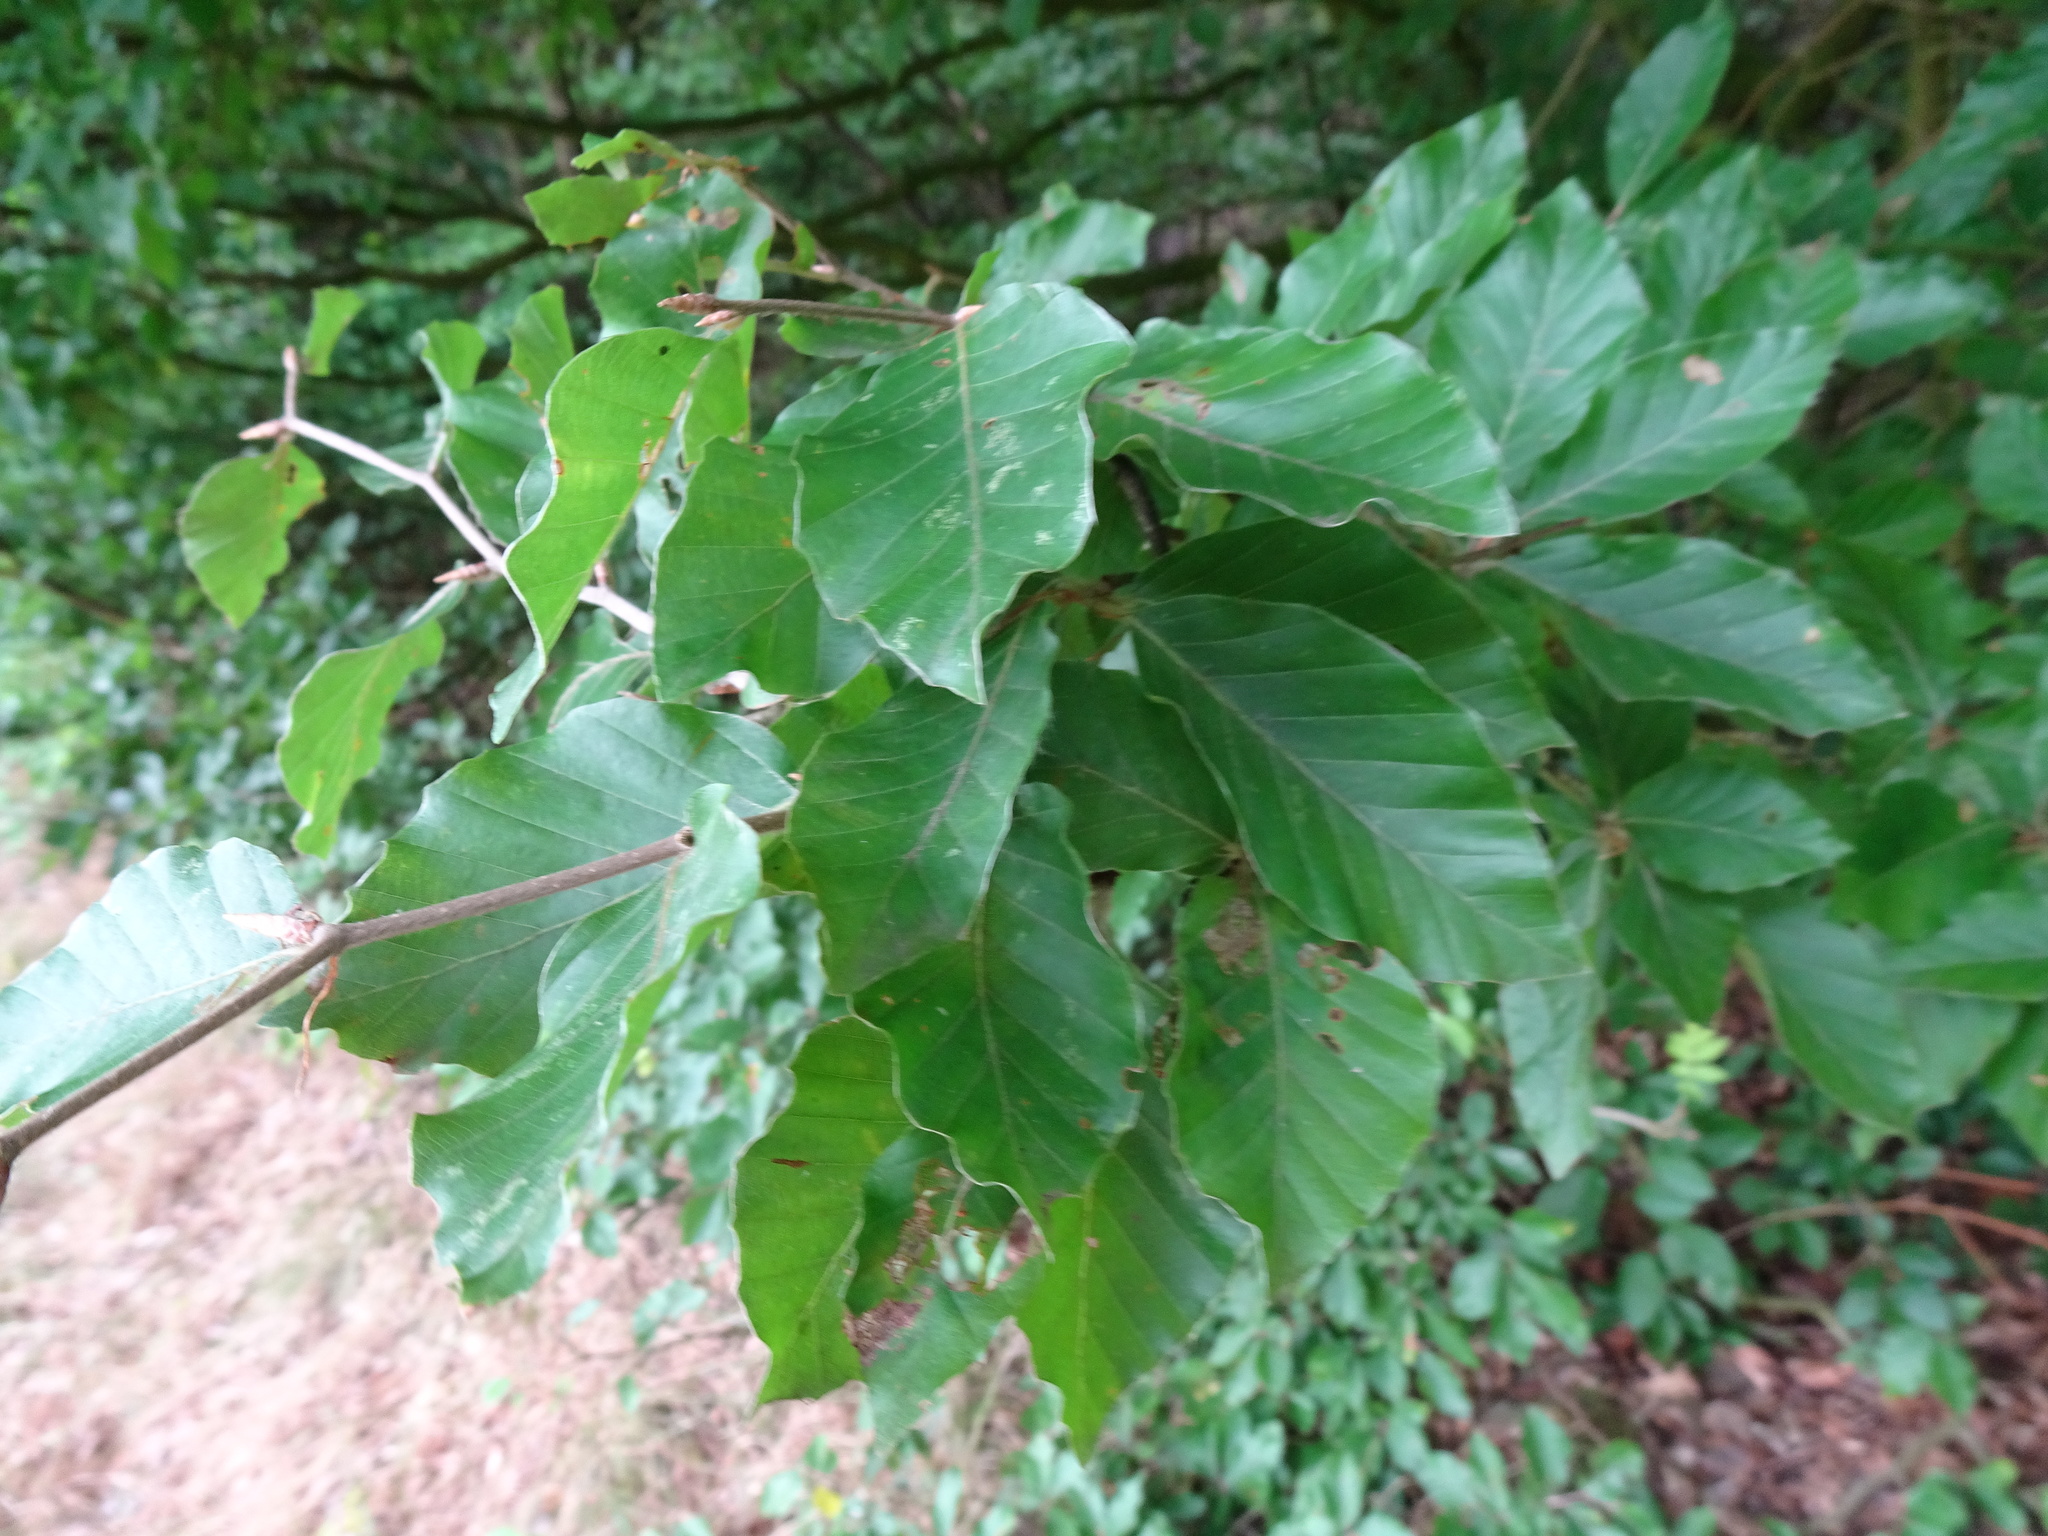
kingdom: Plantae
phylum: Tracheophyta
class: Magnoliopsida
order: Fagales
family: Fagaceae
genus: Fagus
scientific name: Fagus sylvatica
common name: Beech
